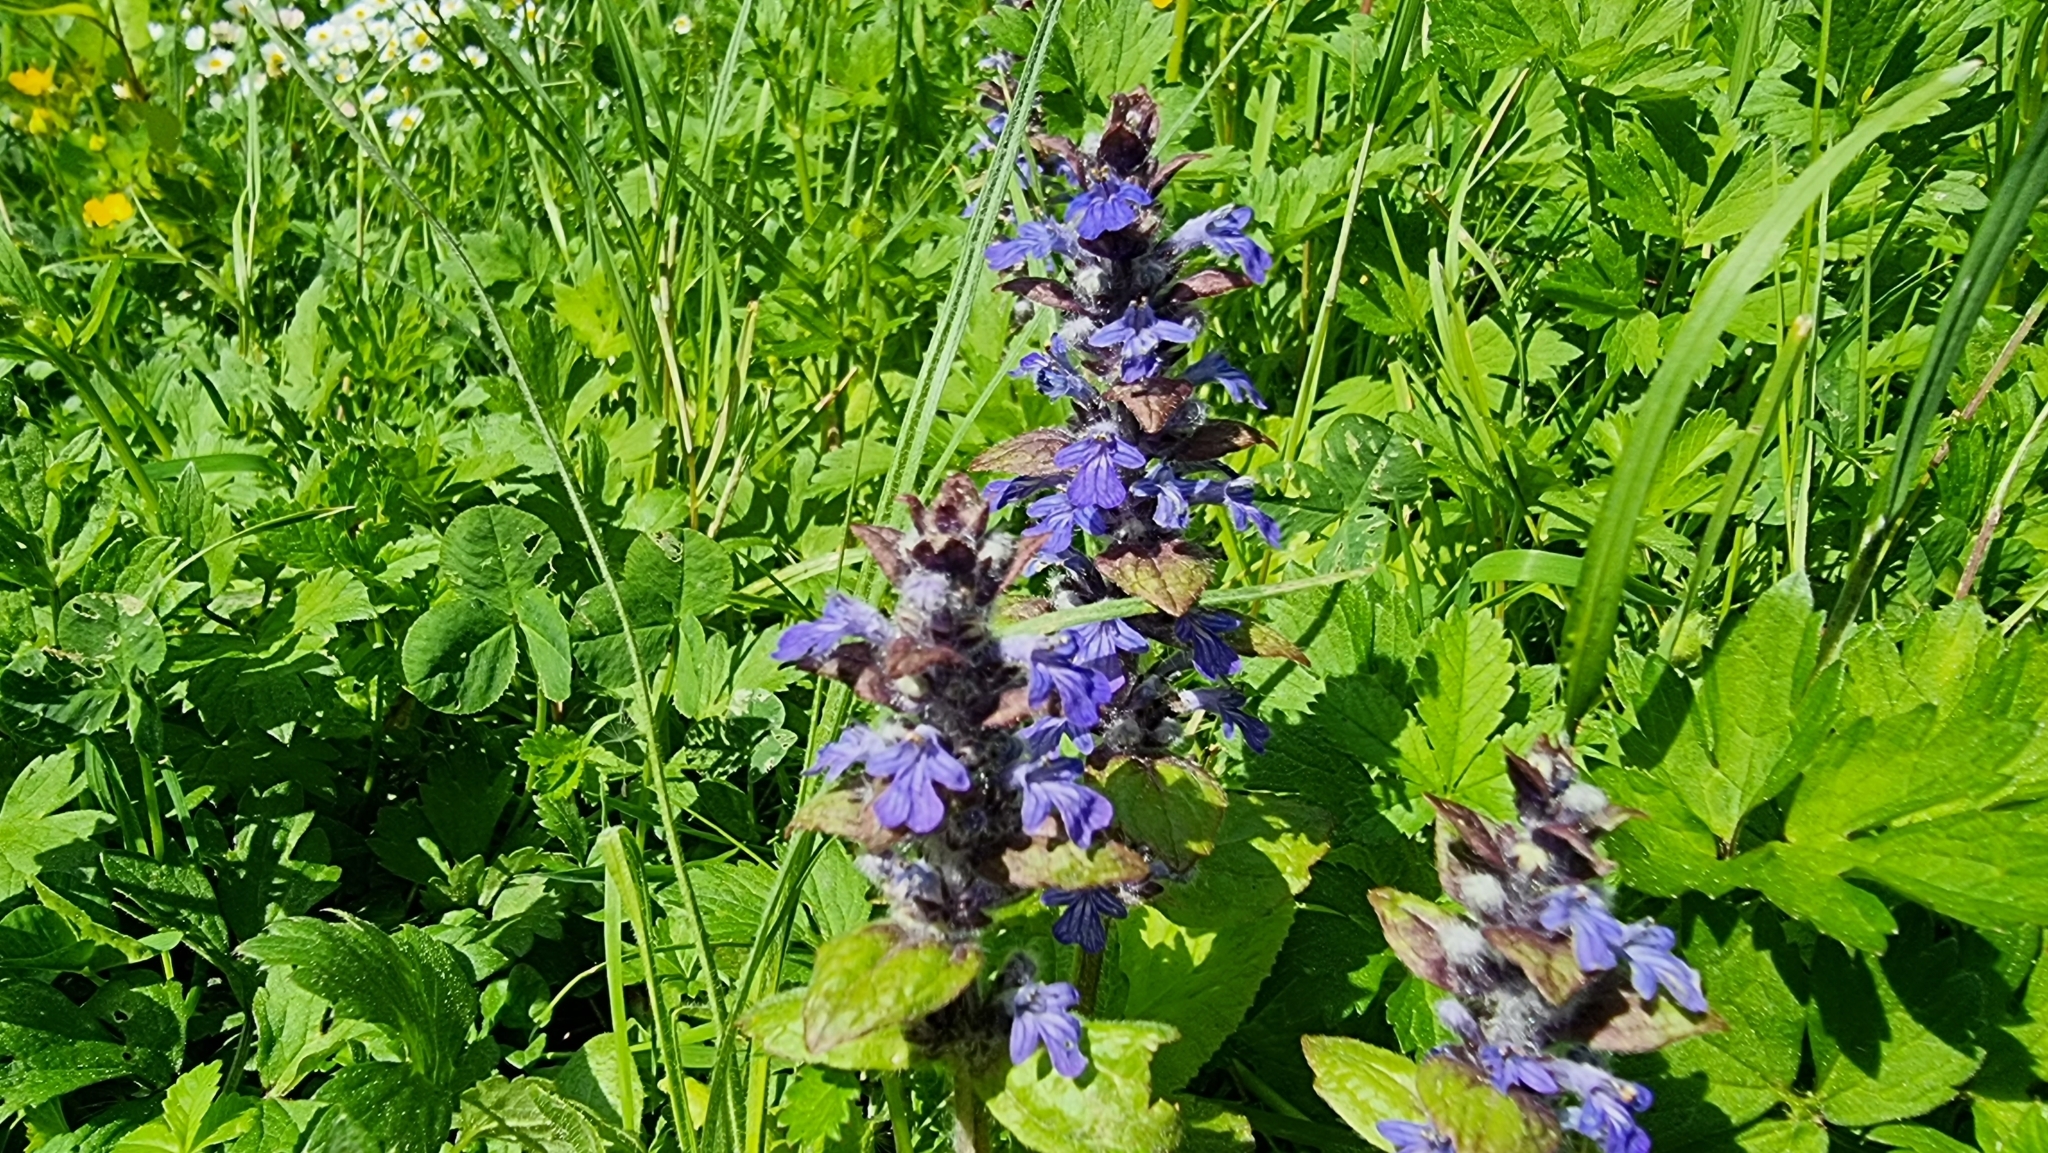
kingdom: Plantae
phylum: Tracheophyta
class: Magnoliopsida
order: Lamiales
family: Lamiaceae
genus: Ajuga
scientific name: Ajuga reptans
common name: Bugle
